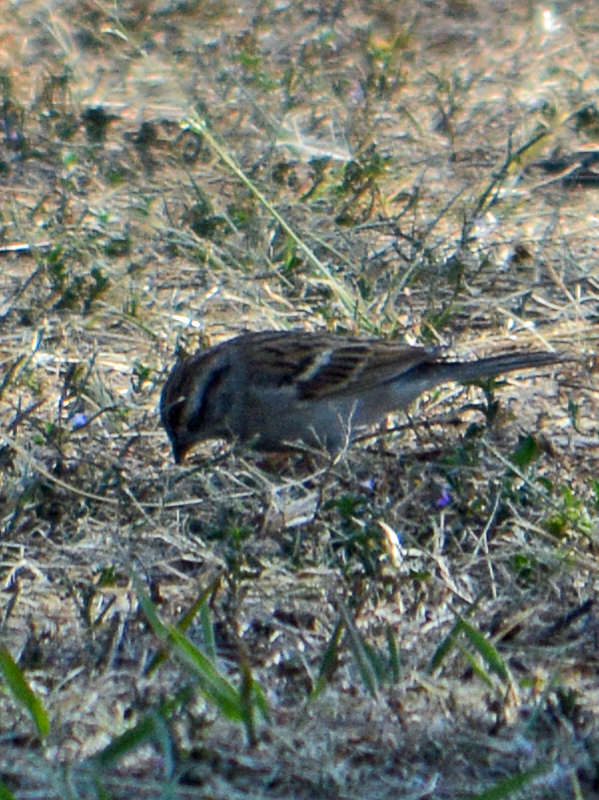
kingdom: Animalia
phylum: Chordata
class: Aves
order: Passeriformes
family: Passerellidae
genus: Spizella
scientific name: Spizella passerina
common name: Chipping sparrow
